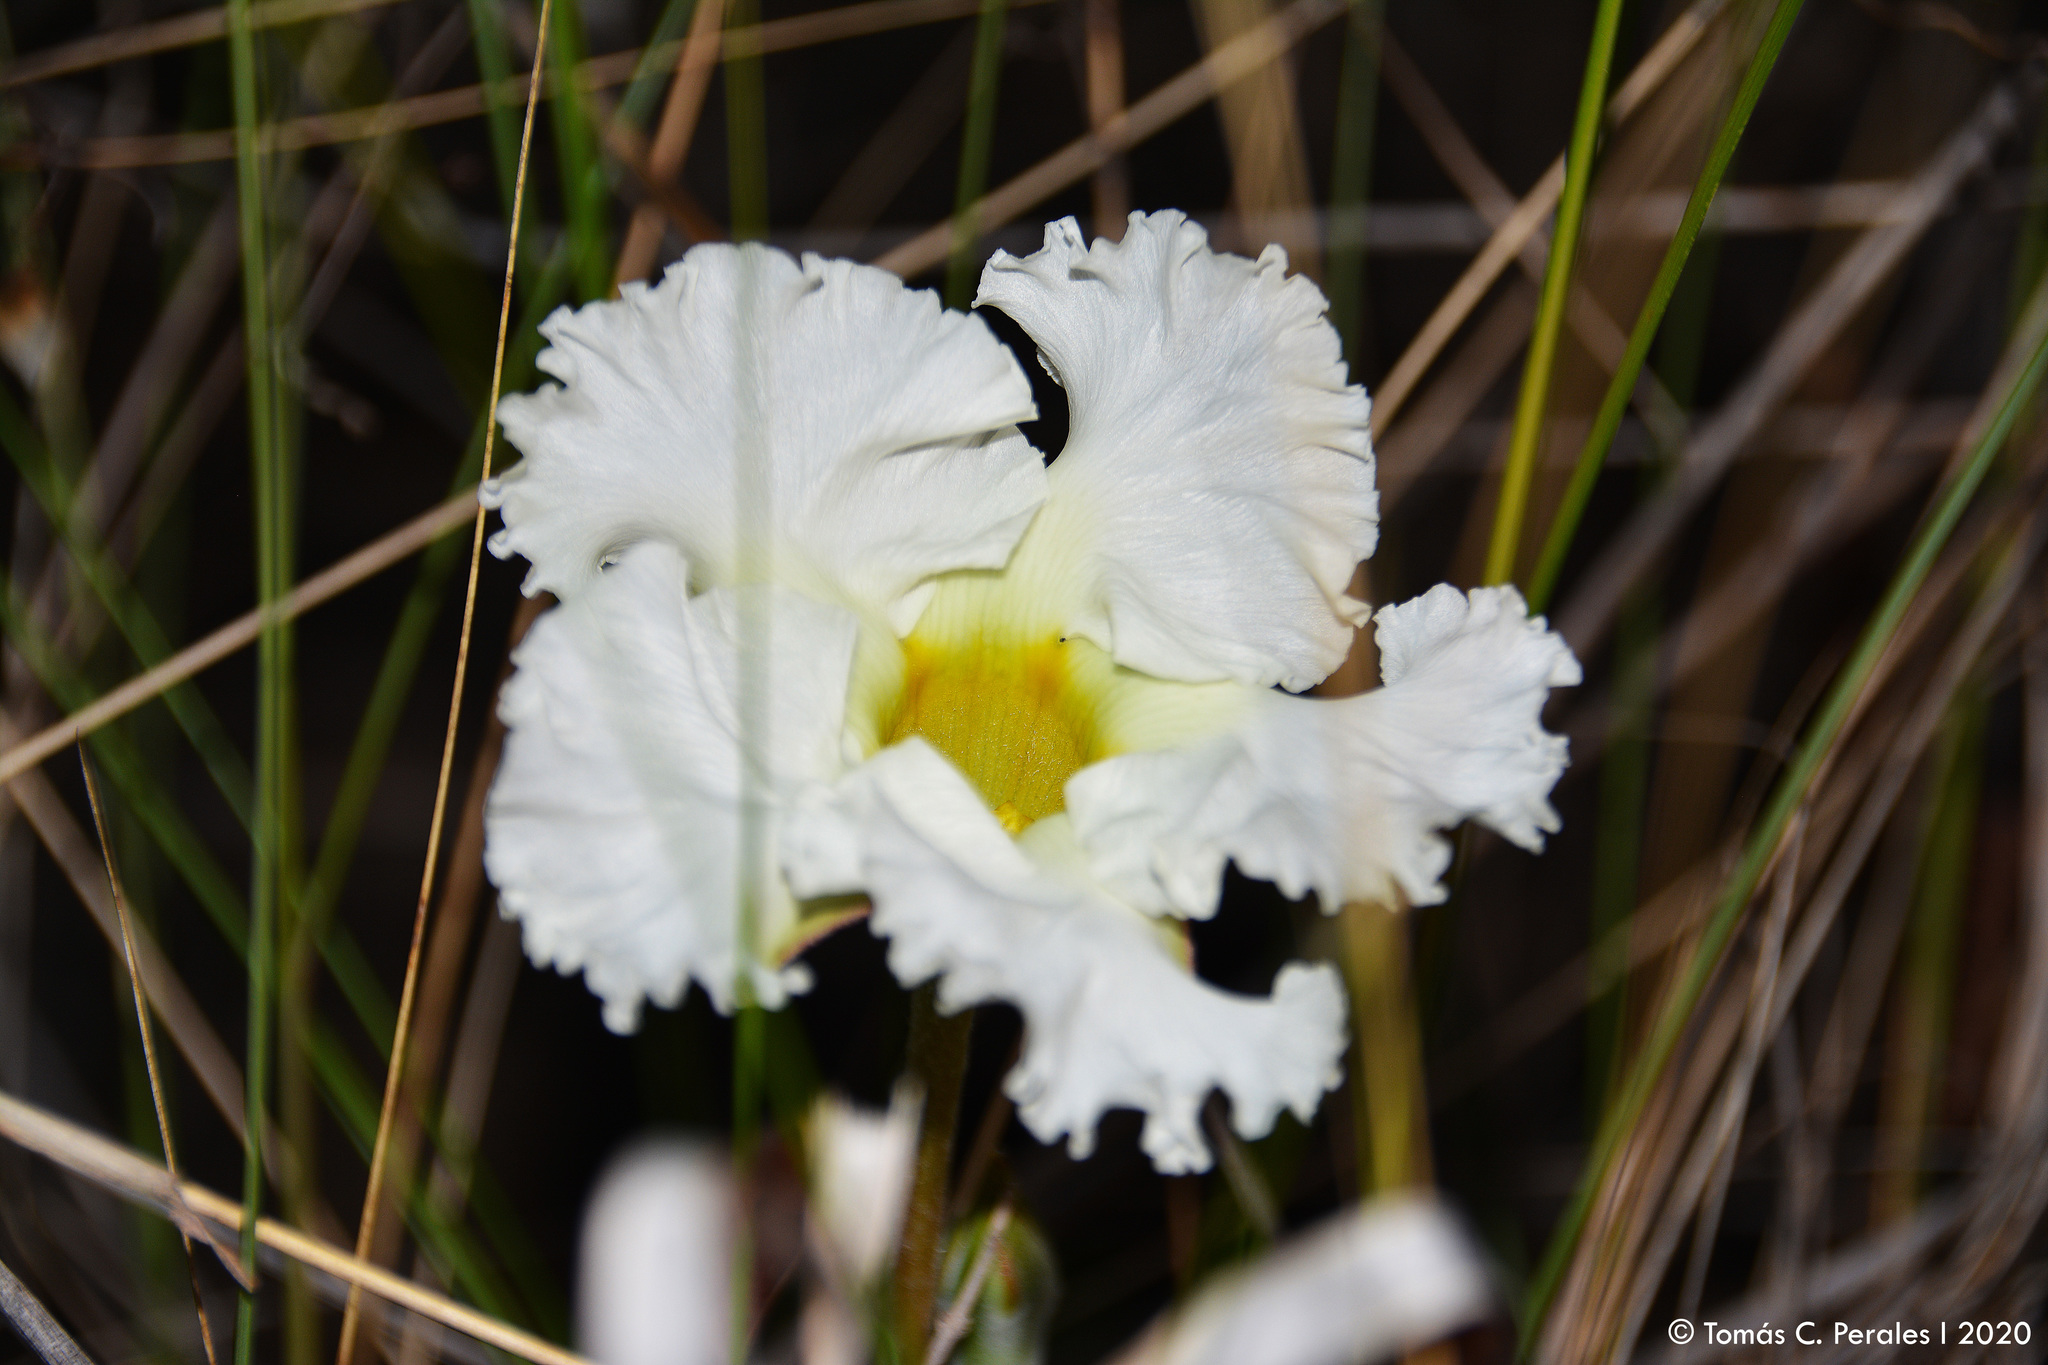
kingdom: Plantae
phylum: Tracheophyta
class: Magnoliopsida
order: Gentianales
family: Apocynaceae
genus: Mandevilla
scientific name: Mandevilla petraea
